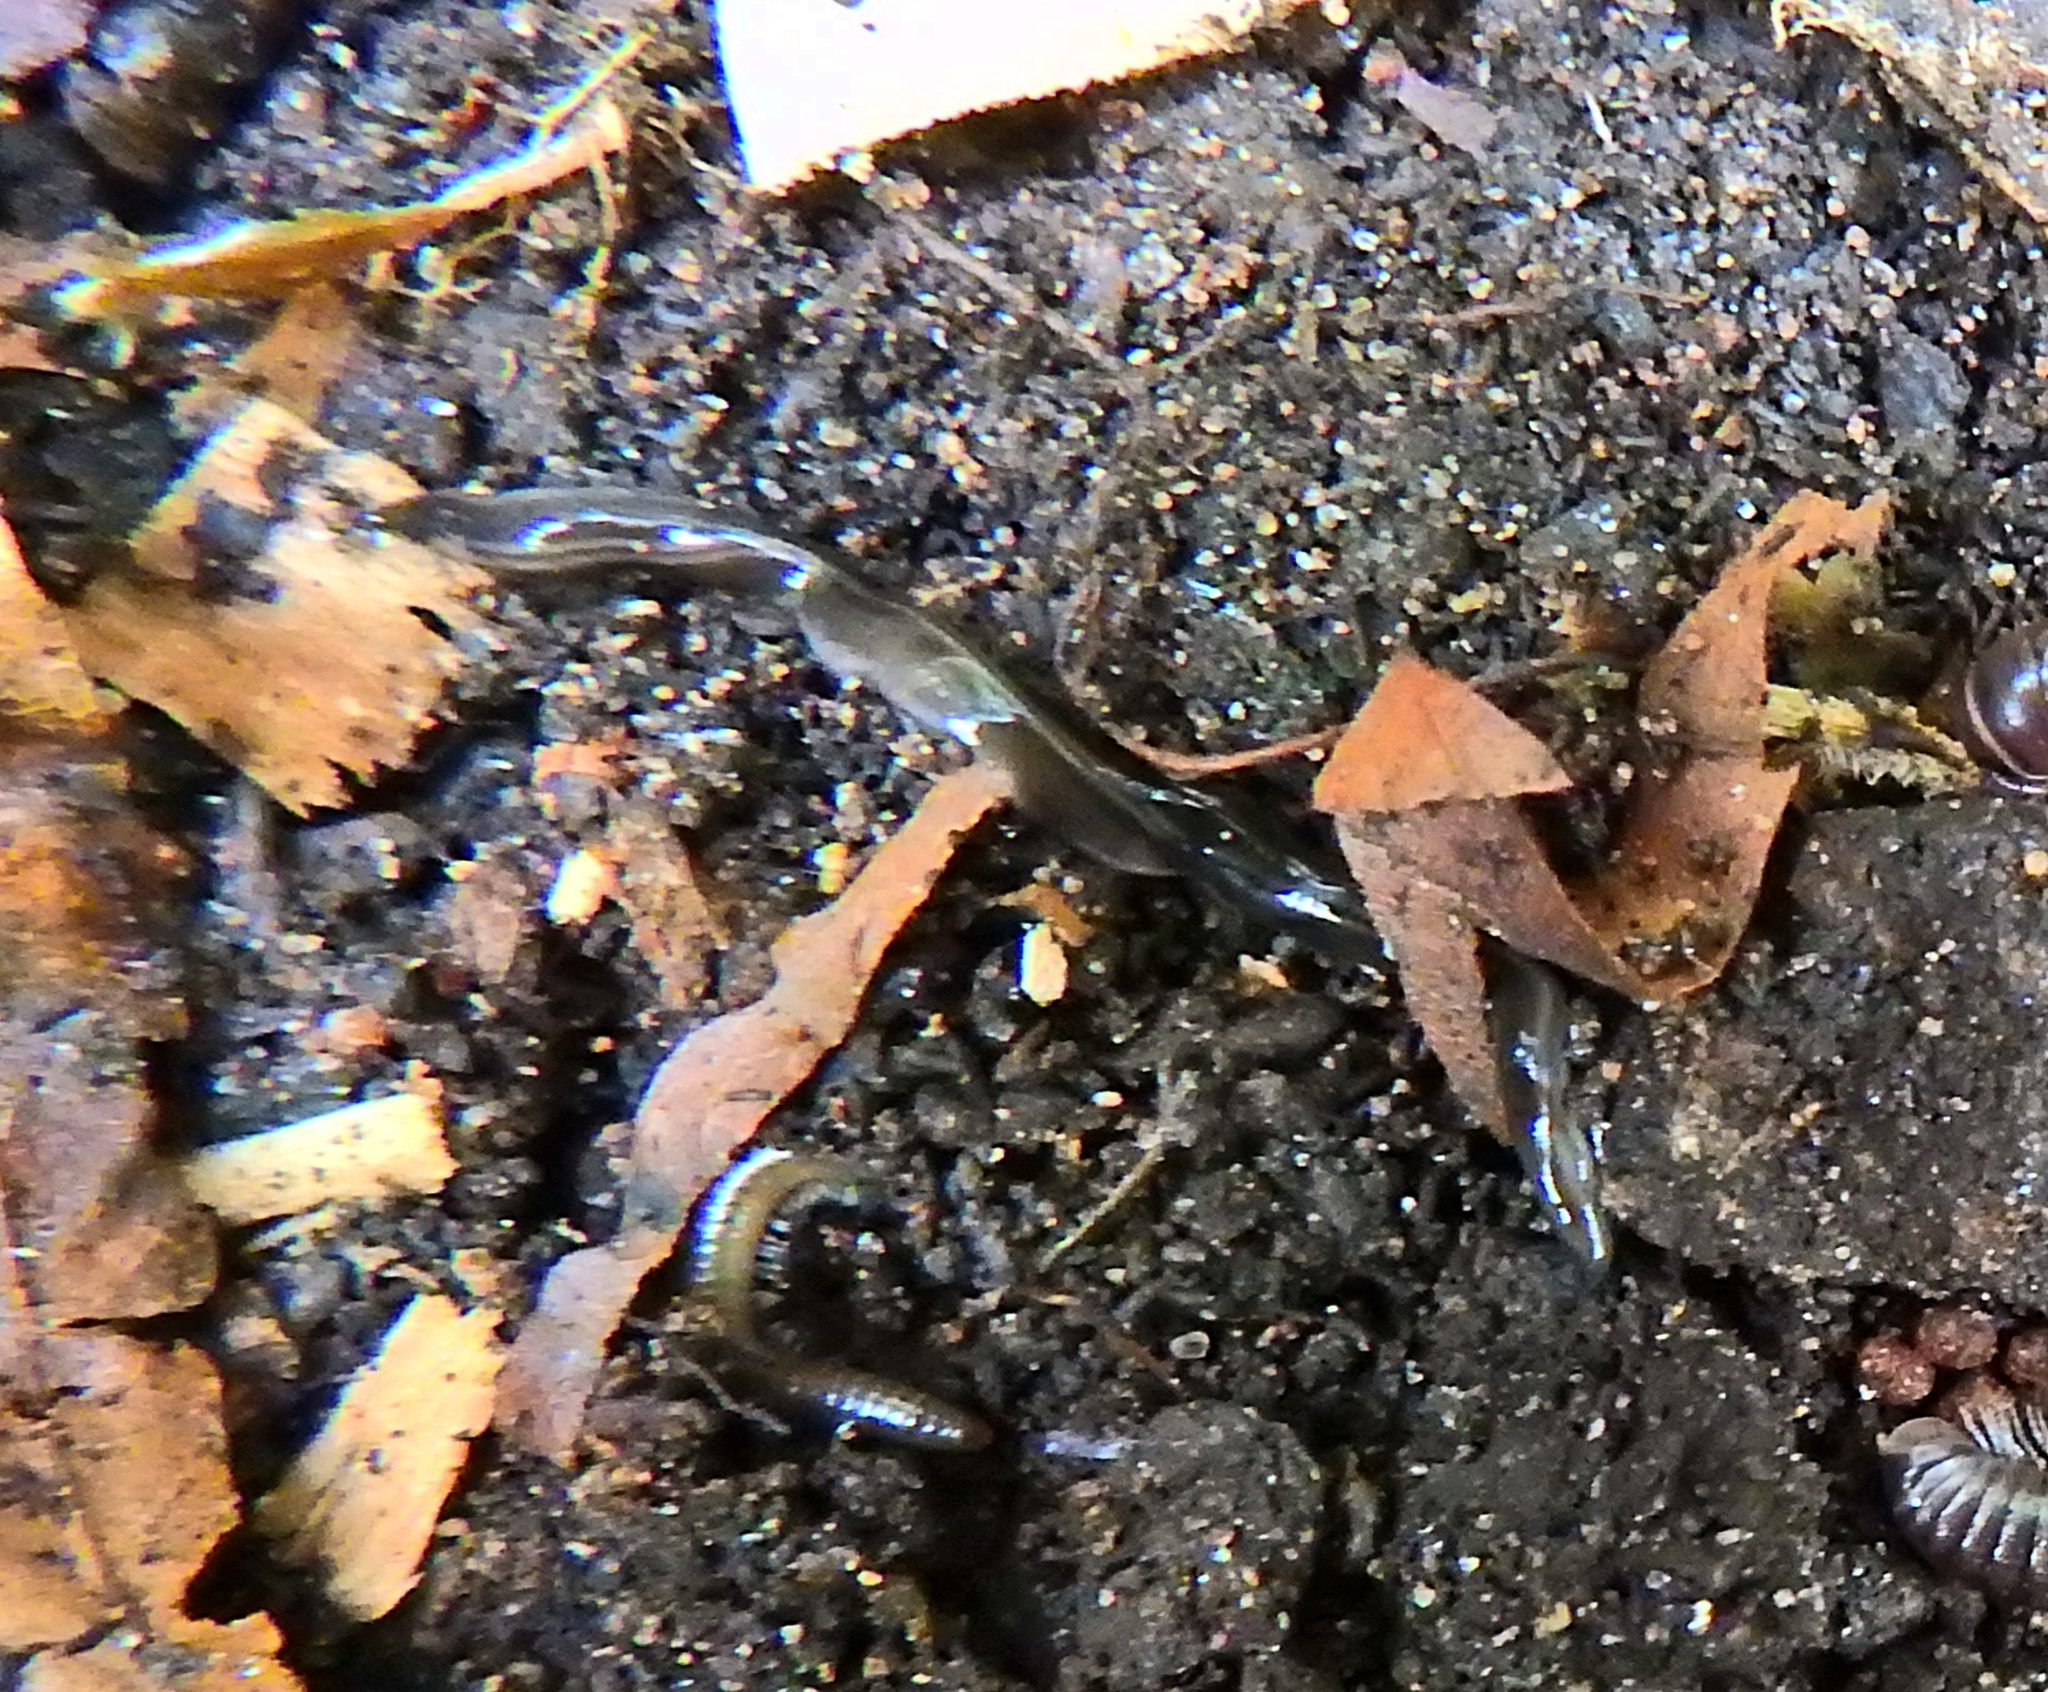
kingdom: Animalia
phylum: Platyhelminthes
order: Tricladida
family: Geoplanidae
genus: Parakontikia
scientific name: Parakontikia ventrolineata
